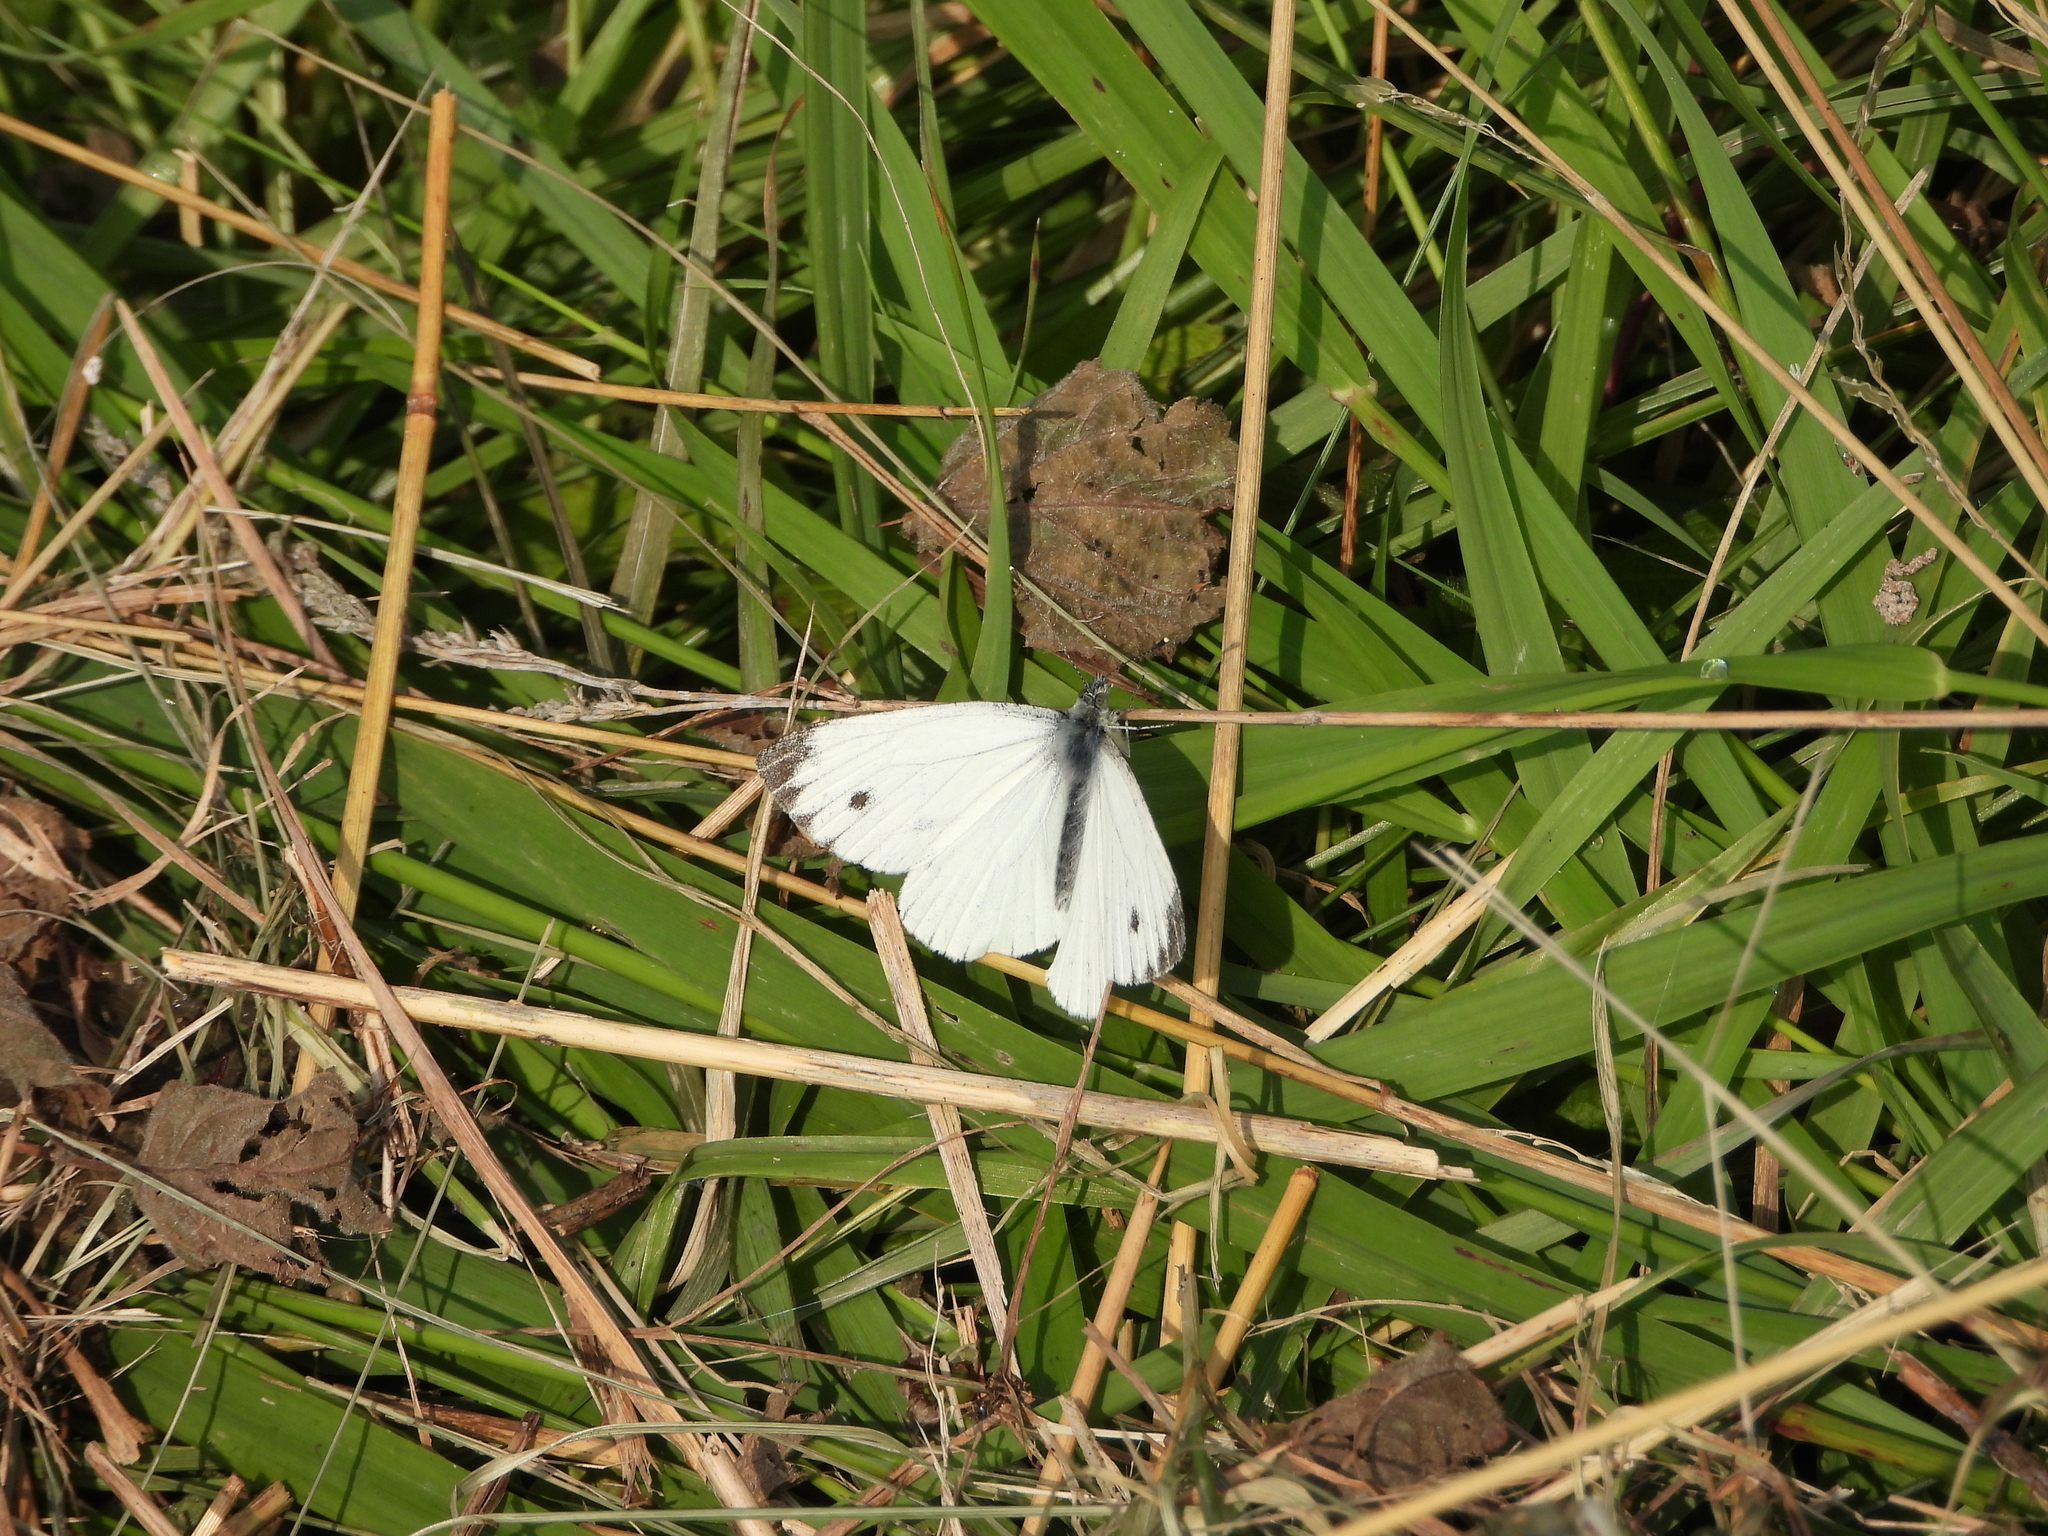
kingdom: Animalia
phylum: Arthropoda
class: Insecta
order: Lepidoptera
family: Pieridae
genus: Pieris
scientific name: Pieris napi
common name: Green-veined white
